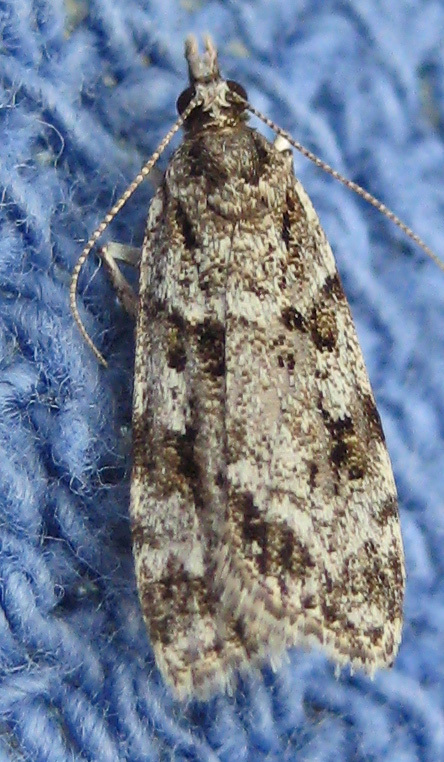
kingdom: Animalia
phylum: Arthropoda
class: Insecta
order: Lepidoptera
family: Crambidae
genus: Scoparia
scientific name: Scoparia biplagialis
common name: Double-striped scoparia moth
